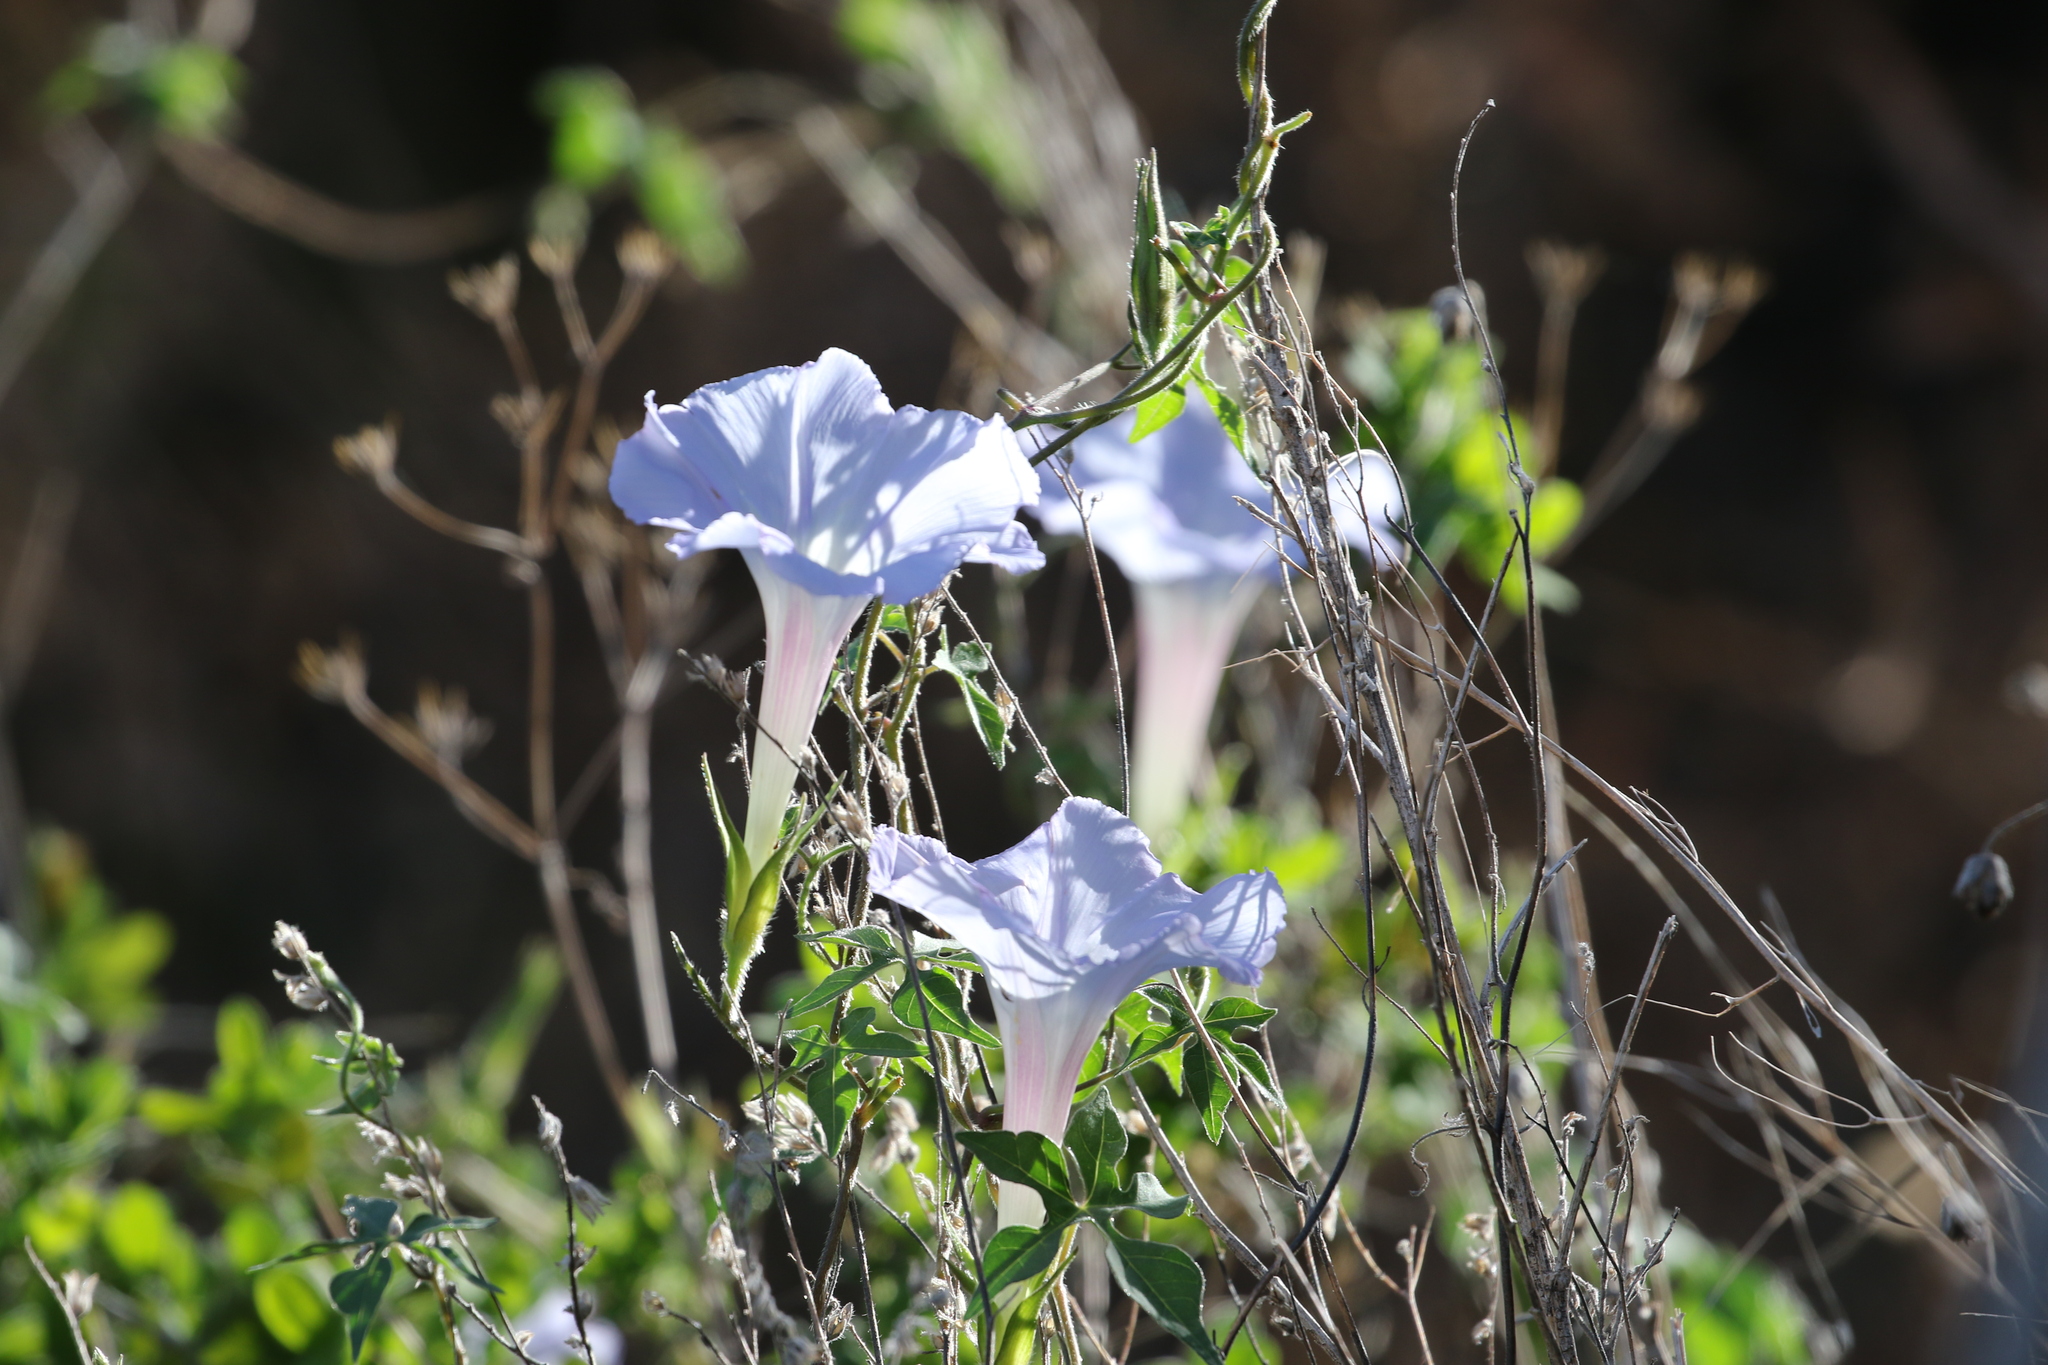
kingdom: Plantae
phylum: Tracheophyta
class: Magnoliopsida
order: Solanales
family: Convolvulaceae
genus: Ipomoea
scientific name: Ipomoea lindheimeri
